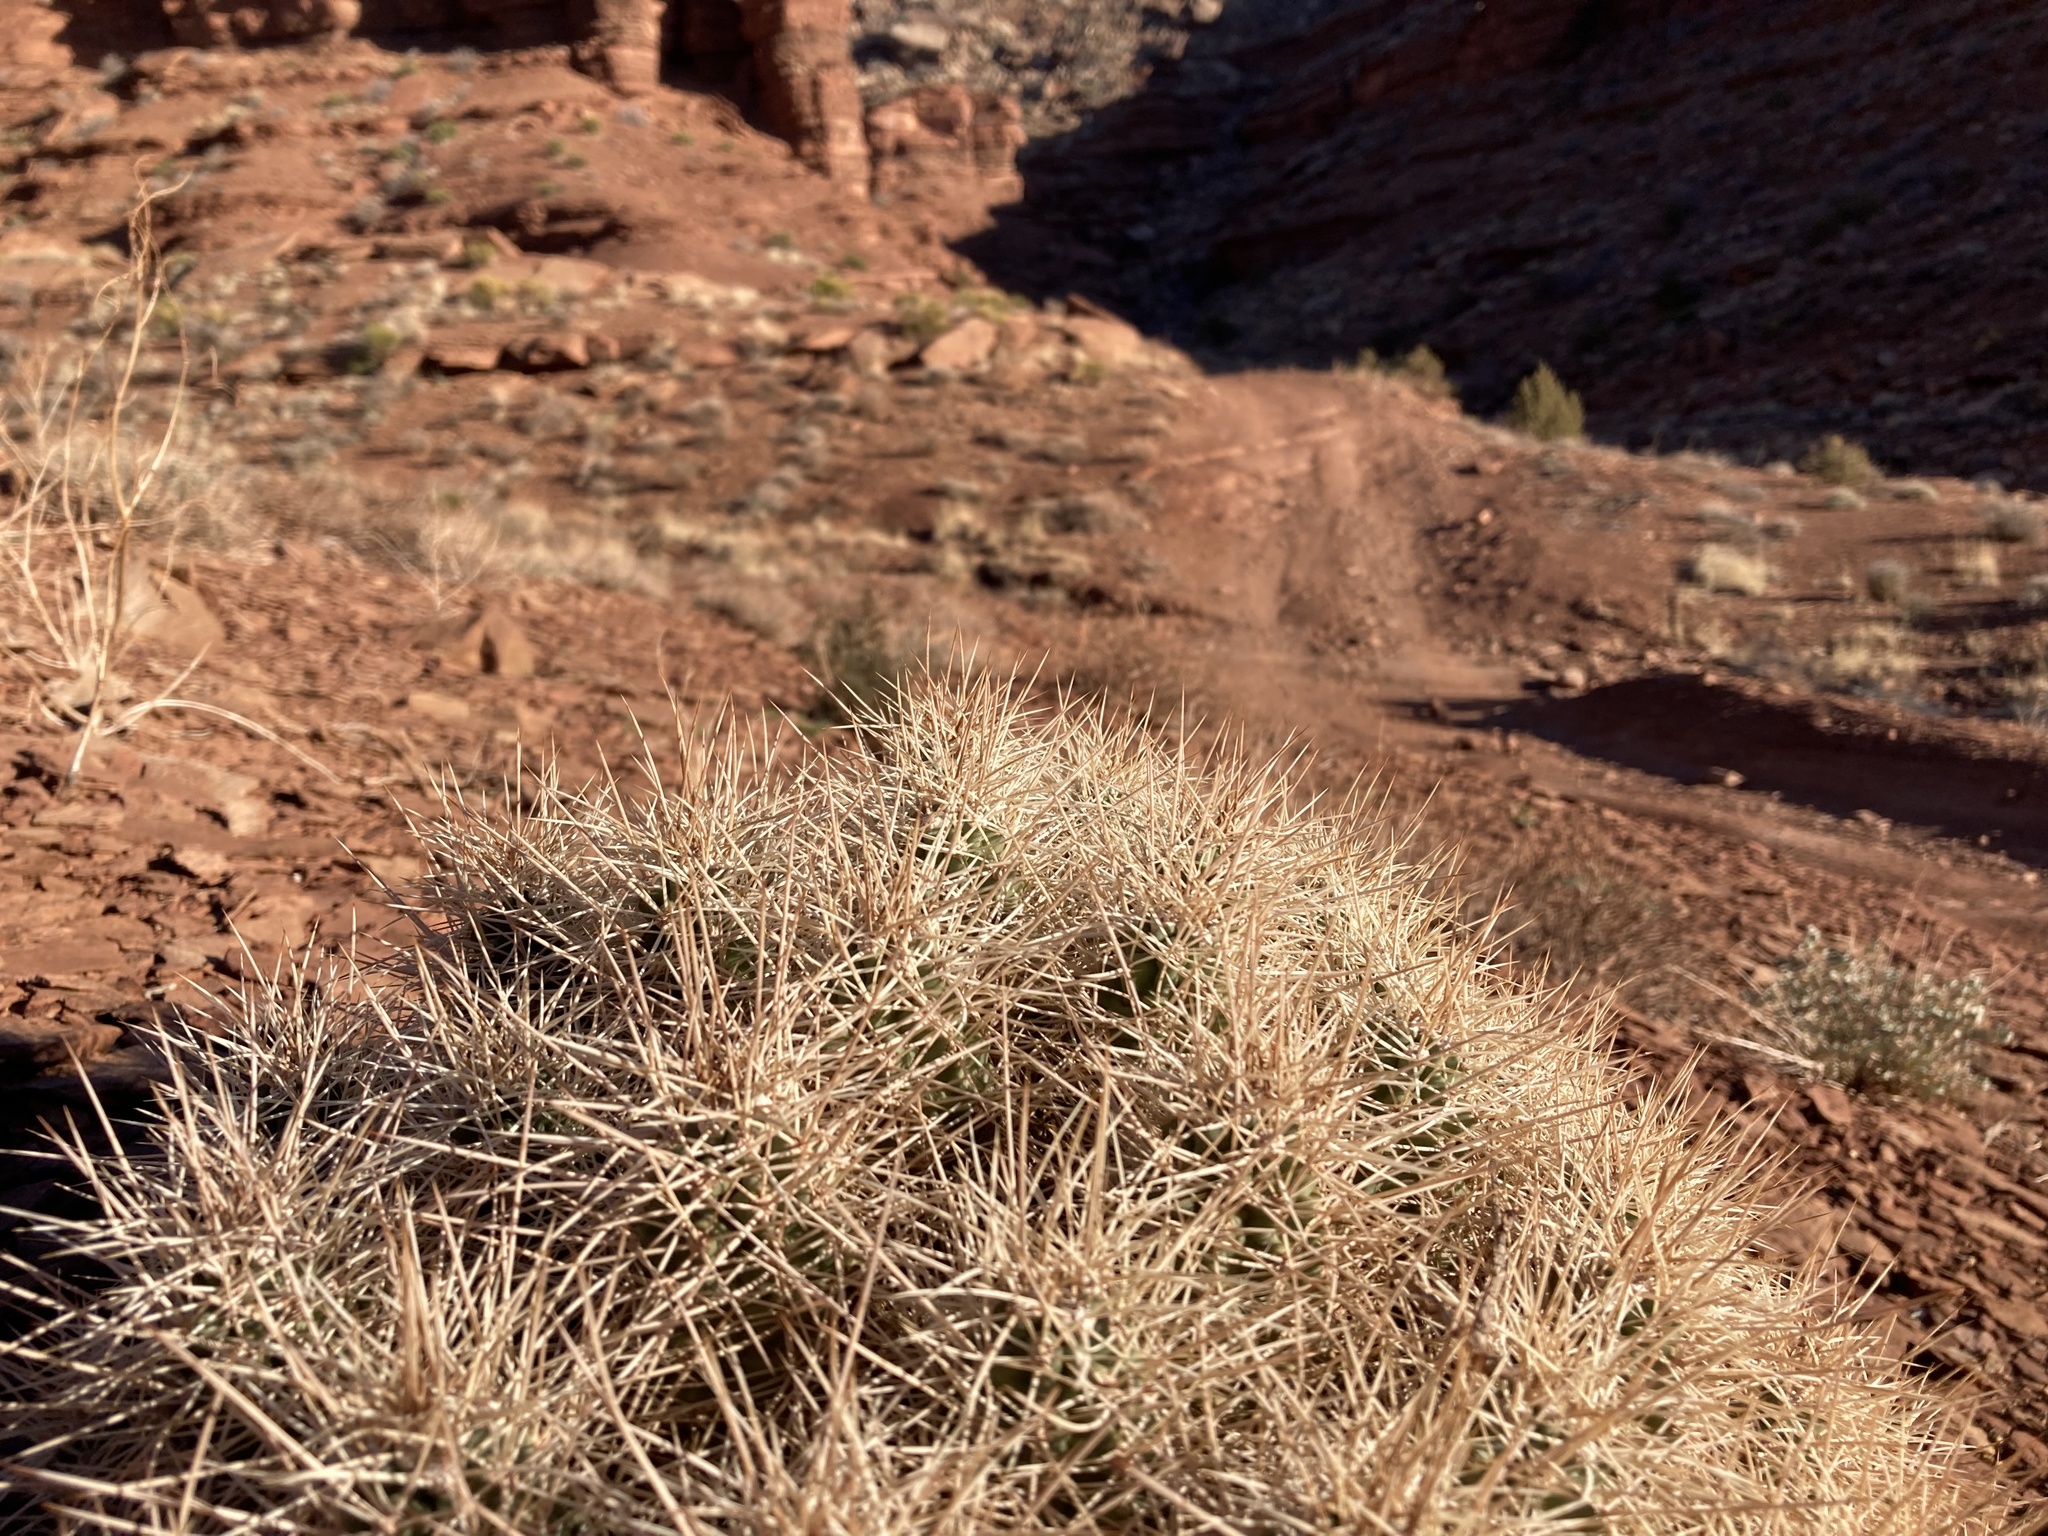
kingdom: Plantae
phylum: Tracheophyta
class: Magnoliopsida
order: Caryophyllales
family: Cactaceae
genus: Echinocereus
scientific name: Echinocereus triglochidiatus
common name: Claretcup hedgehog
